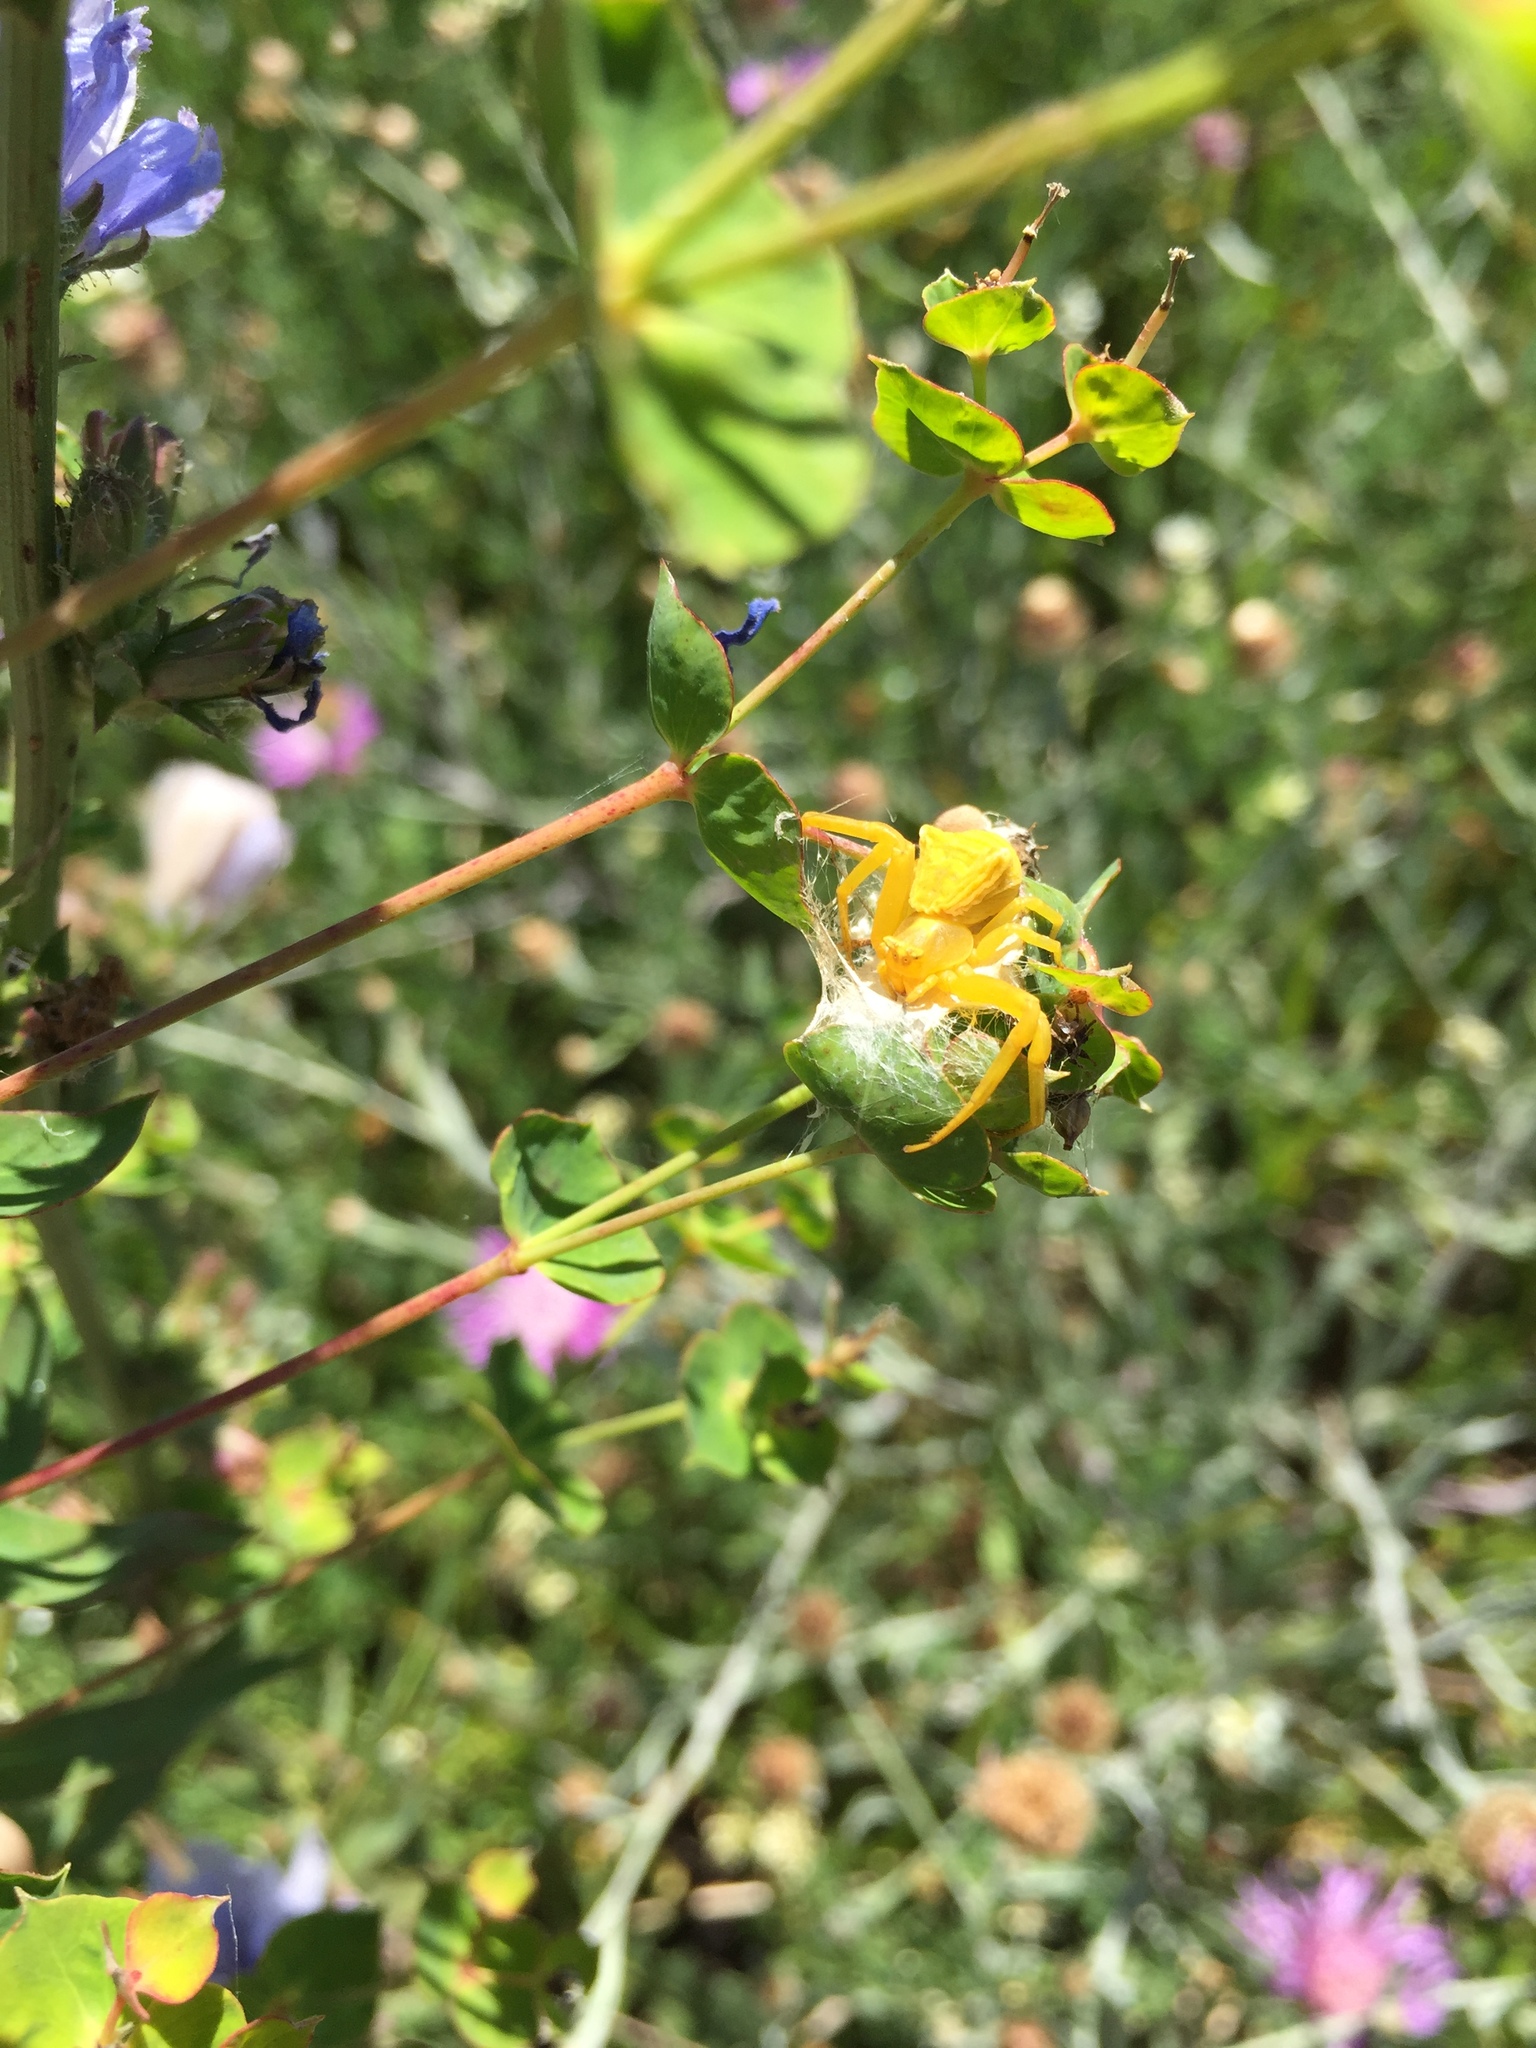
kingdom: Animalia
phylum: Arthropoda
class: Arachnida
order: Araneae
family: Thomisidae
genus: Thomisus
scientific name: Thomisus onustus
